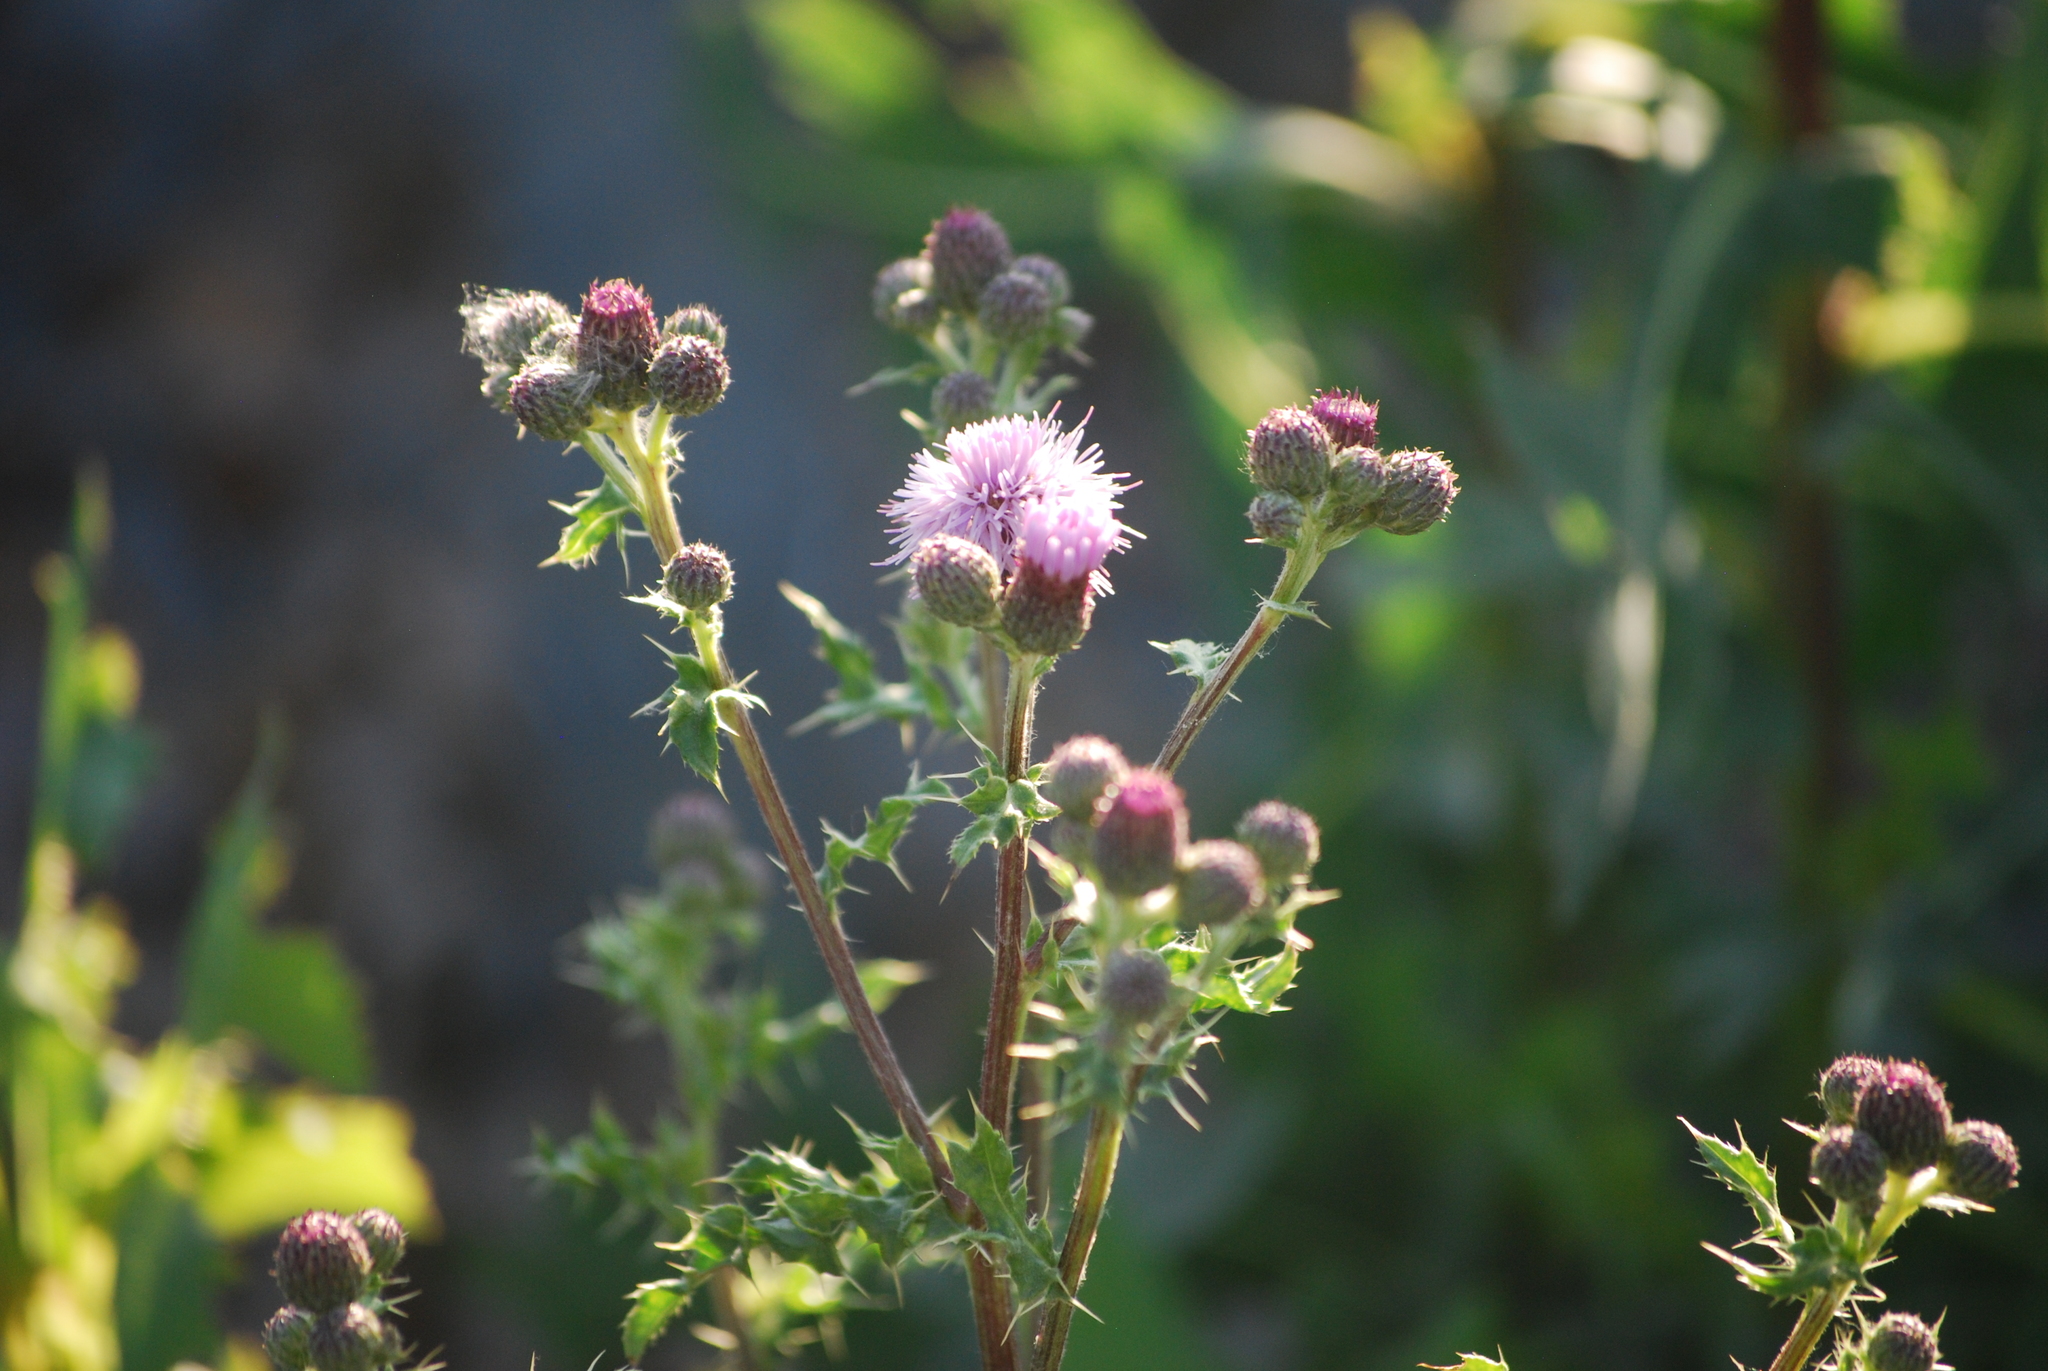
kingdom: Plantae
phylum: Tracheophyta
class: Magnoliopsida
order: Asterales
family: Asteraceae
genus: Cirsium
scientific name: Cirsium arvense
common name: Creeping thistle
